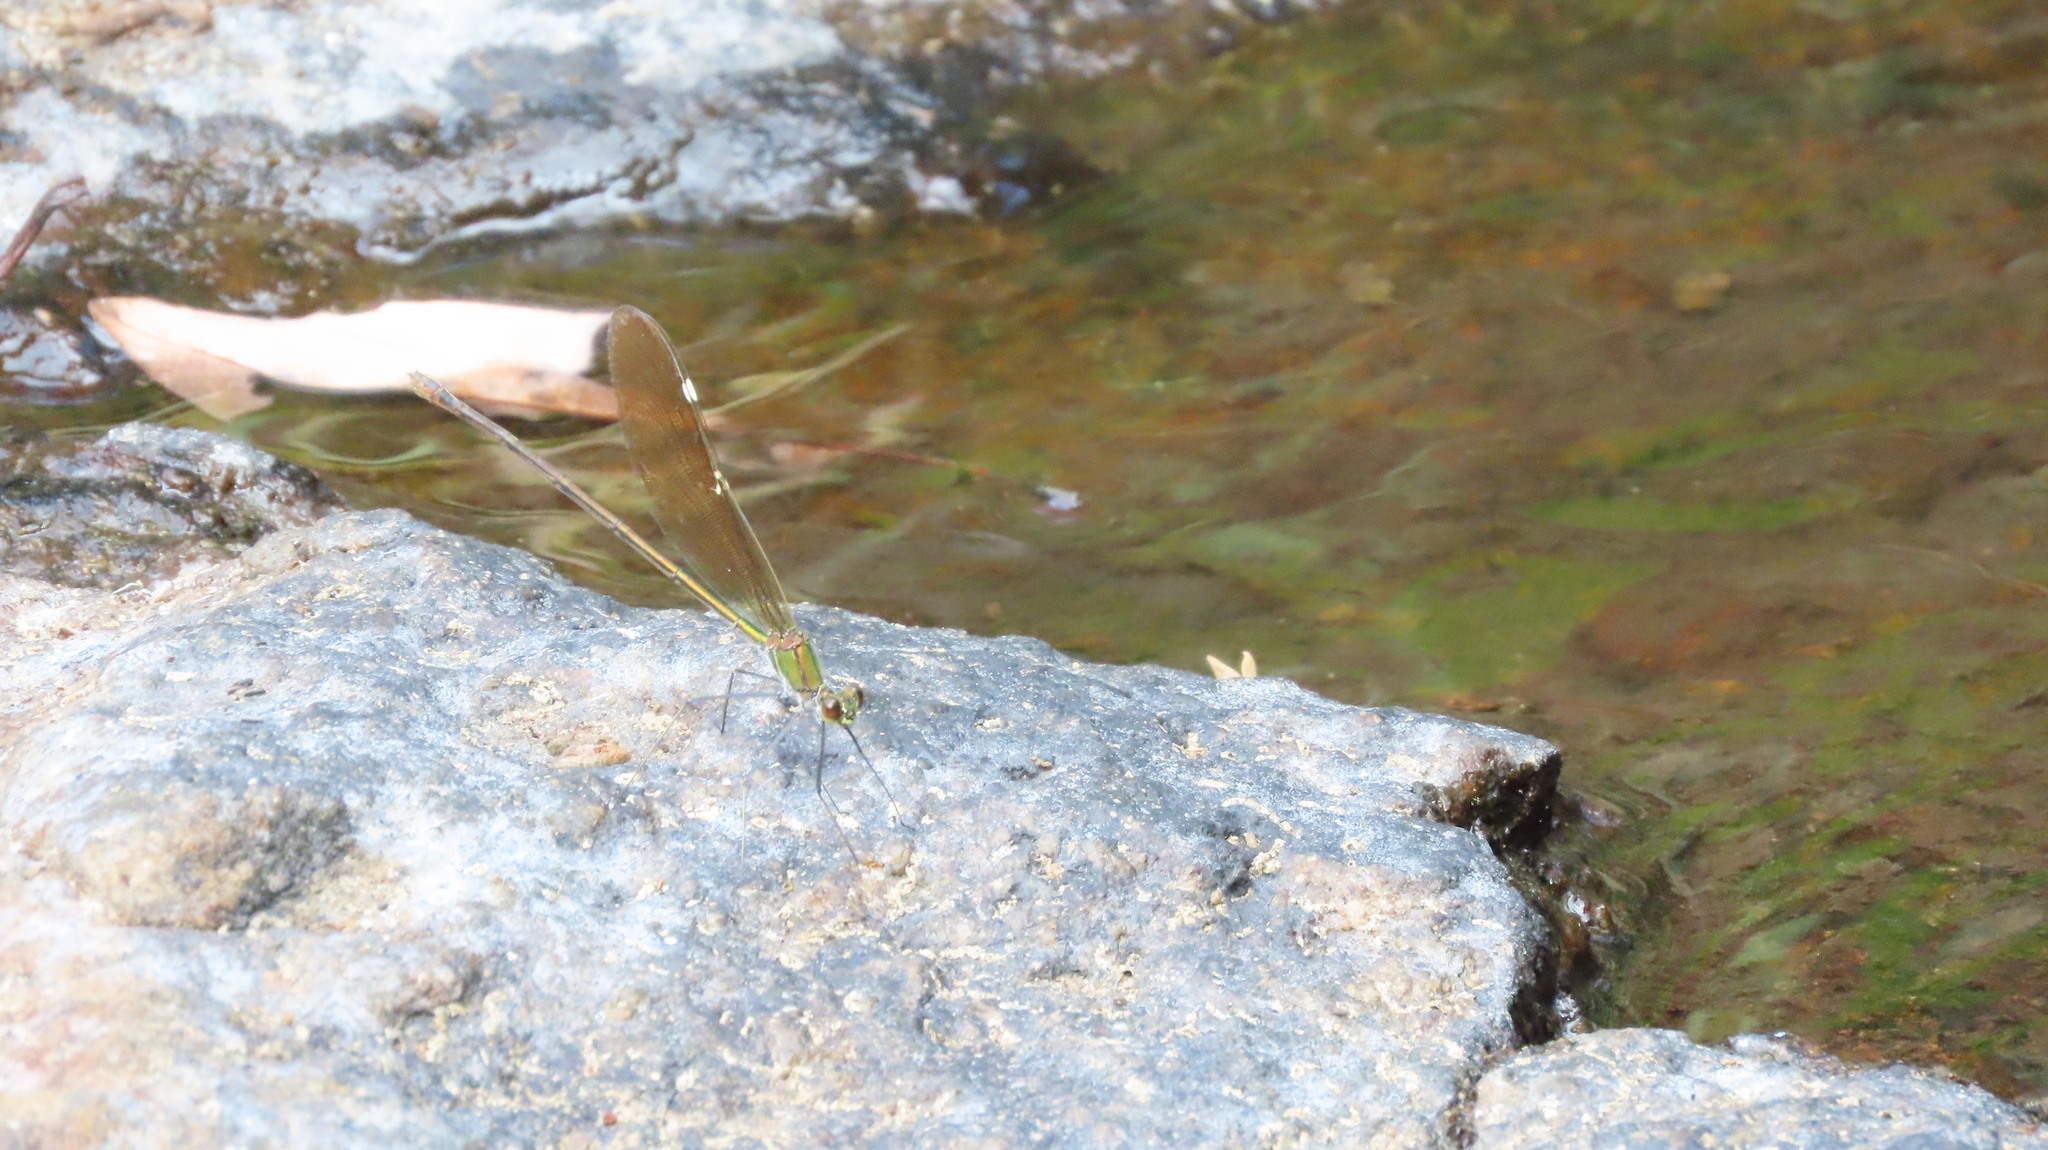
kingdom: Animalia
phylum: Arthropoda
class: Insecta
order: Odonata
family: Calopterygidae
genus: Neurobasis
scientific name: Neurobasis chinensis
